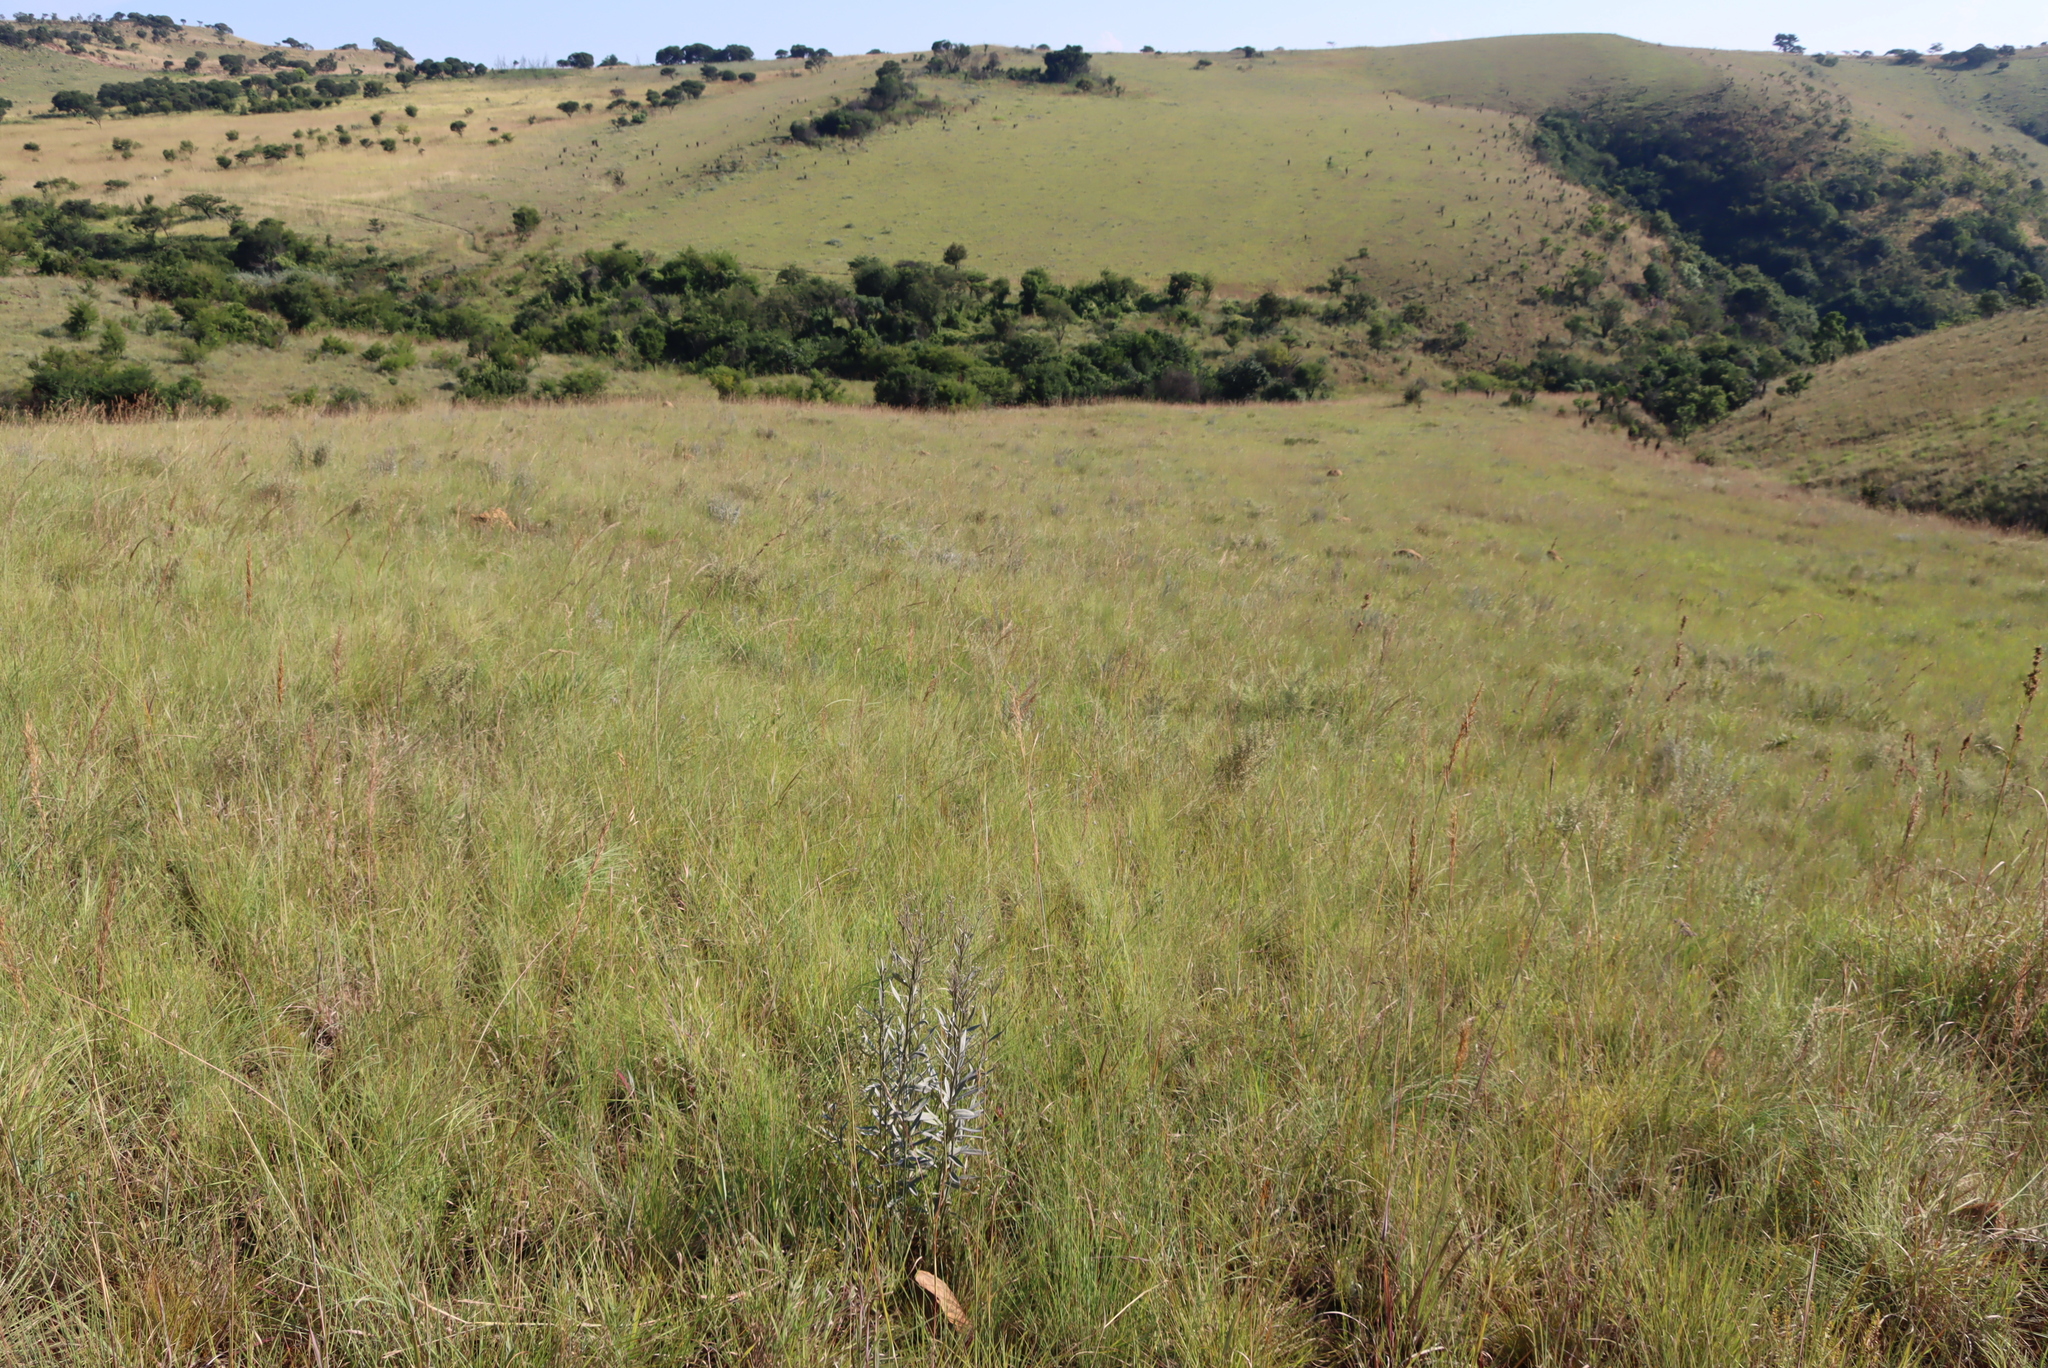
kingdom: Plantae
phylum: Tracheophyta
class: Magnoliopsida
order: Asterales
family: Asteraceae
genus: Hilliardiella
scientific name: Hilliardiella aristata
